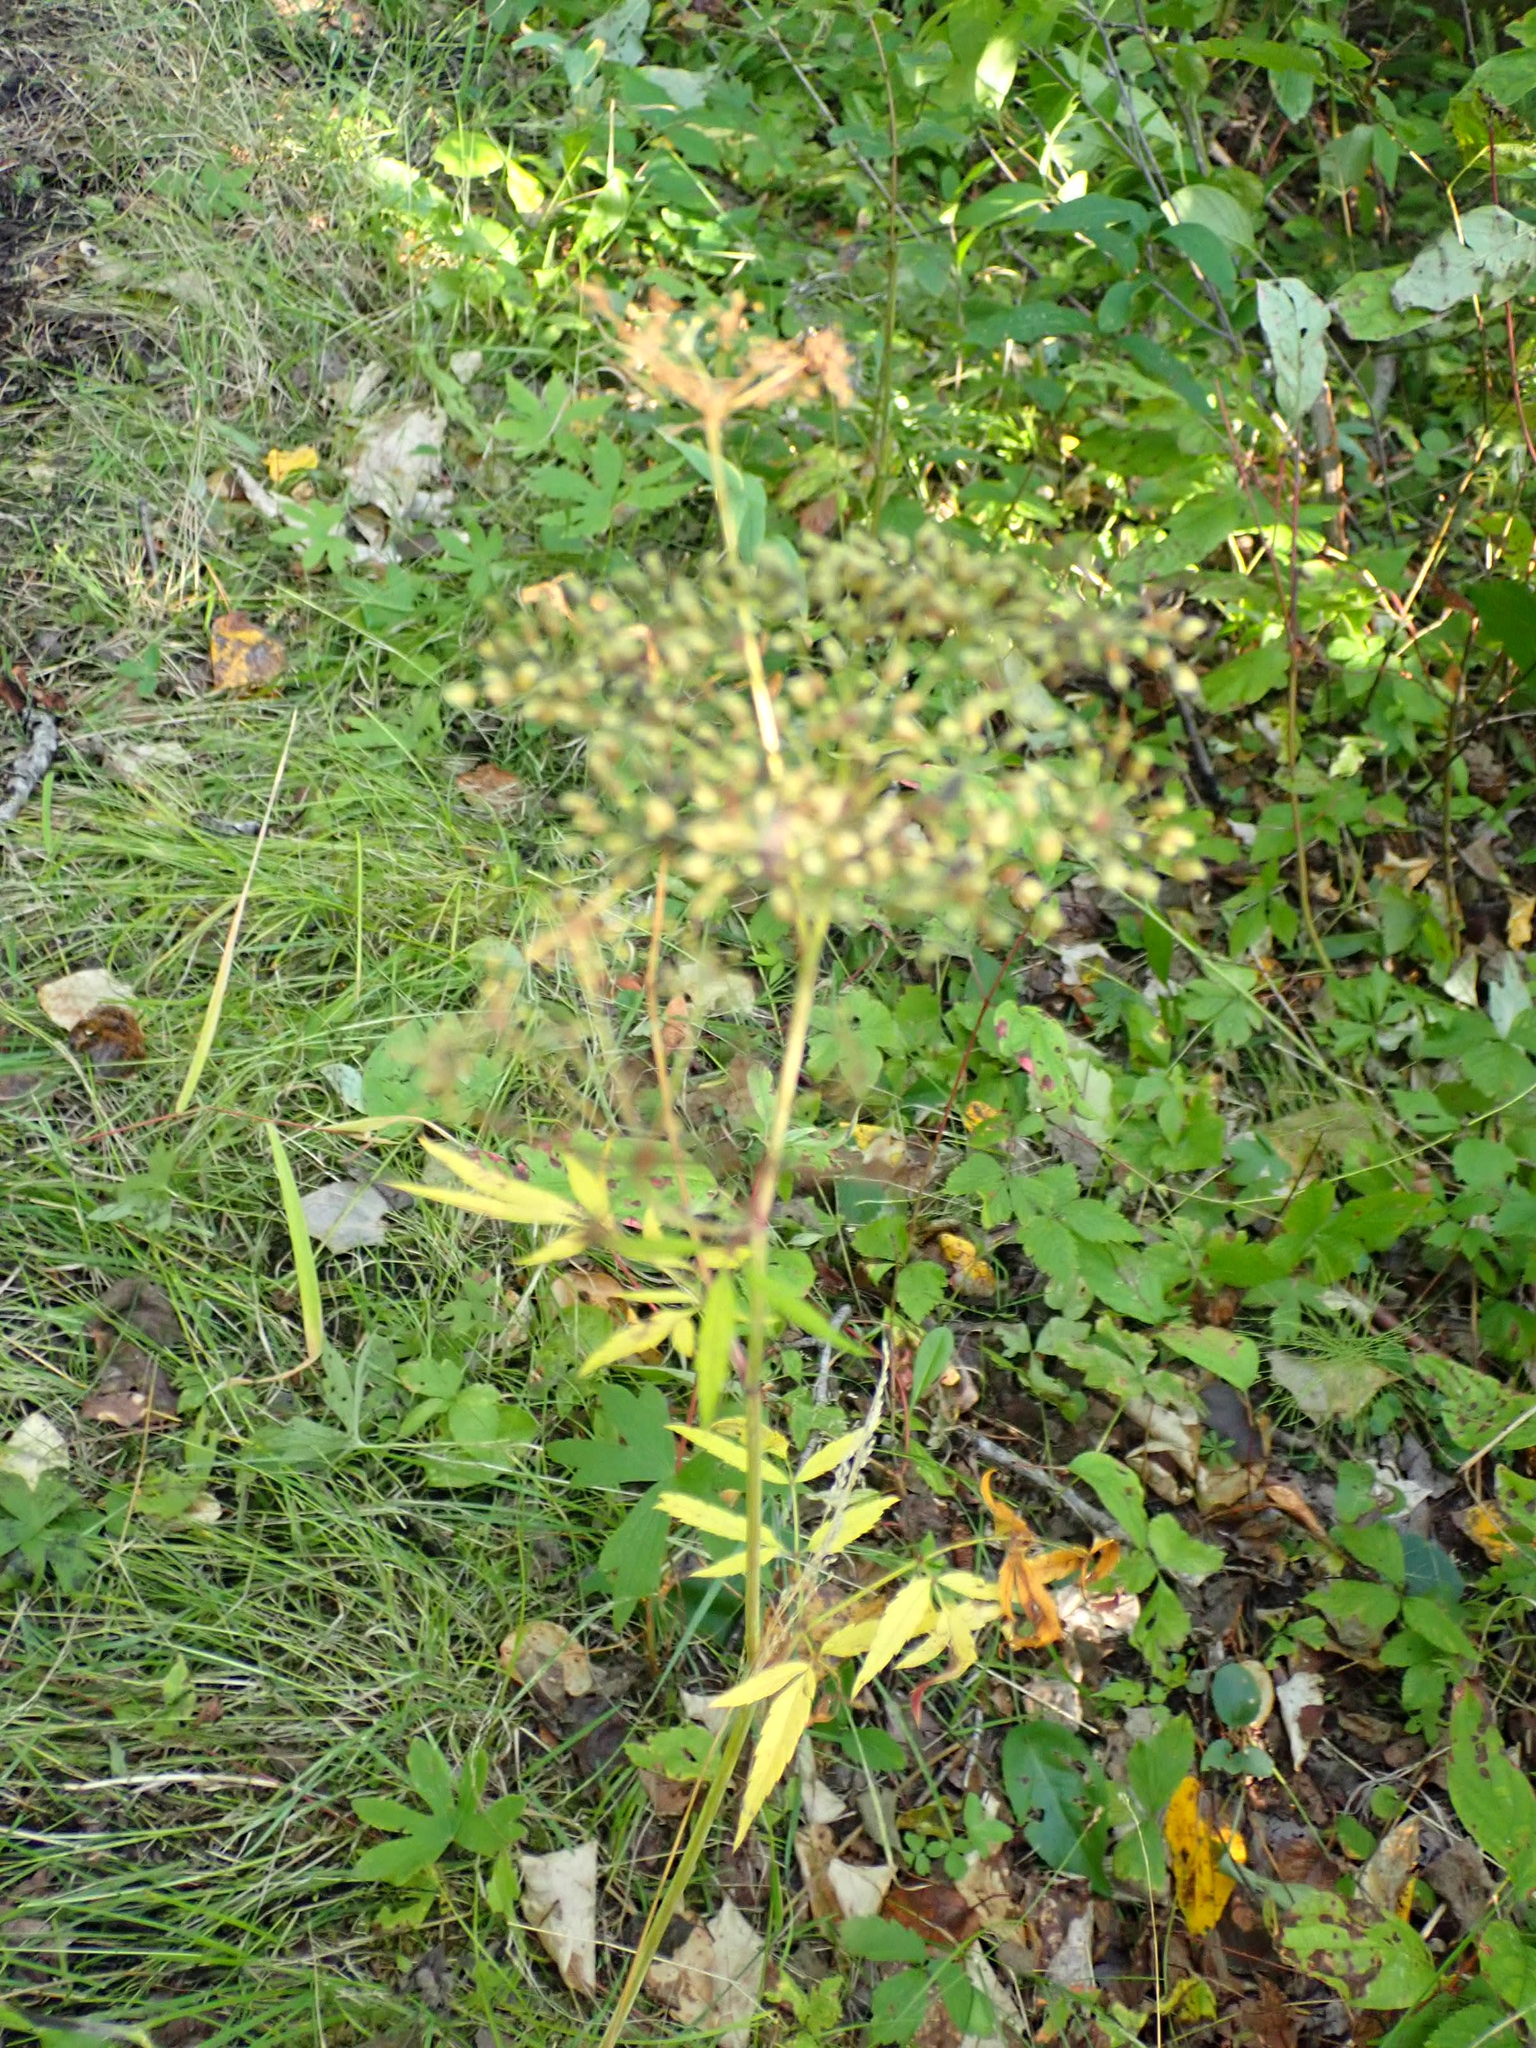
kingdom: Plantae
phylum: Tracheophyta
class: Magnoliopsida
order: Apiales
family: Apiaceae
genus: Cicuta
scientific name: Cicuta maculata
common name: Spotted cowbane
